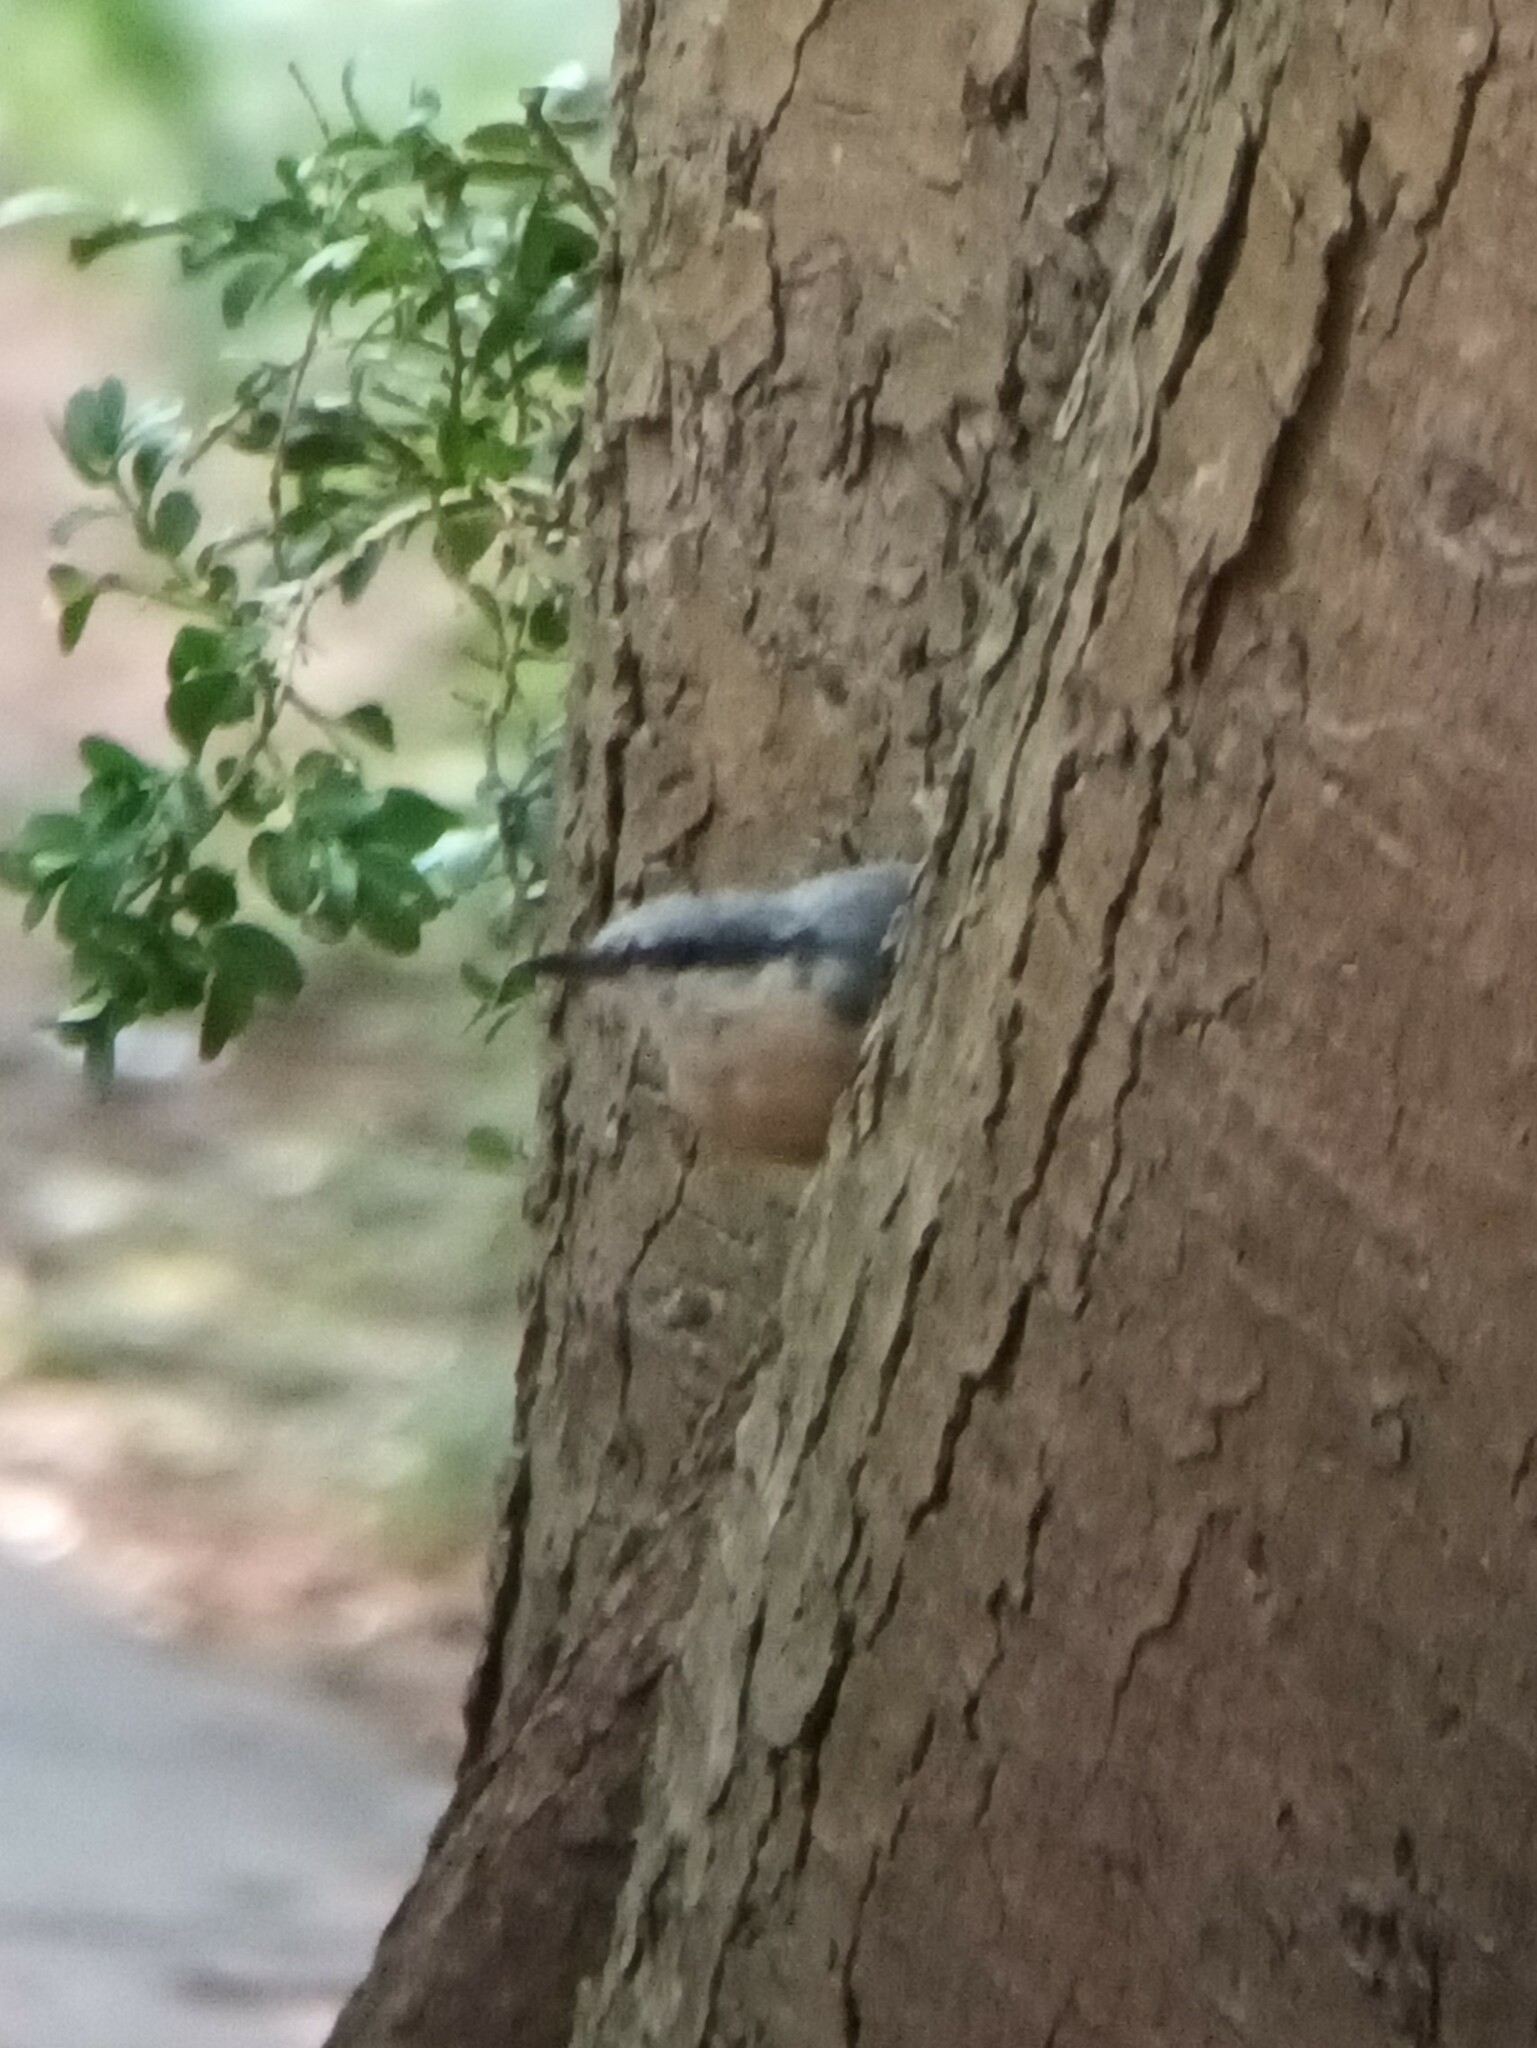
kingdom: Animalia
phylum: Chordata
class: Aves
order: Passeriformes
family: Sittidae
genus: Sitta
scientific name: Sitta europaea
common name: Eurasian nuthatch
